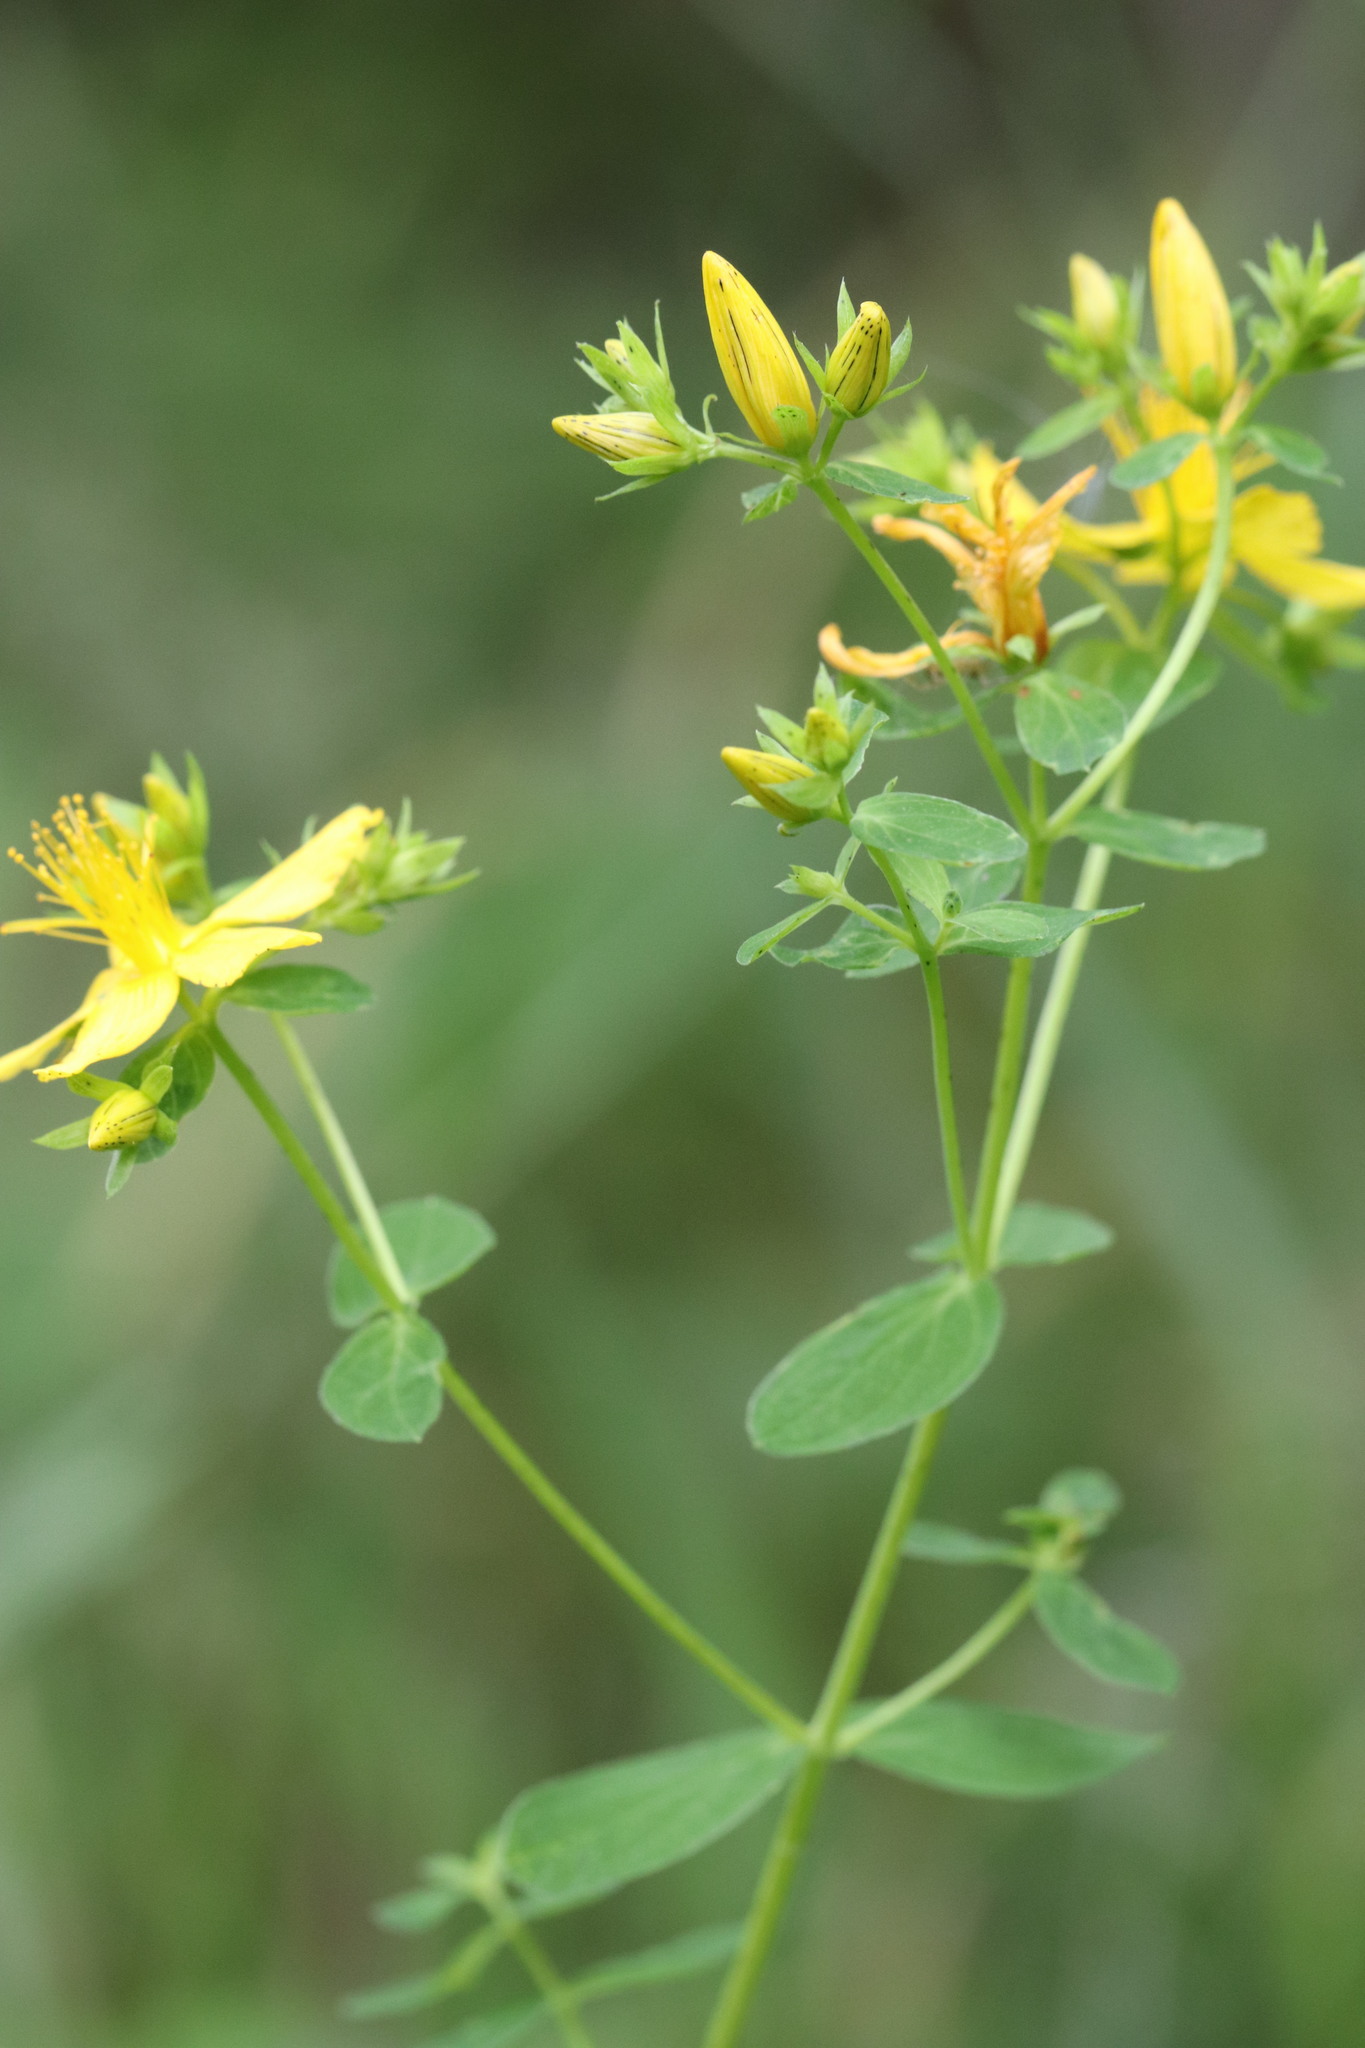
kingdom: Plantae
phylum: Tracheophyta
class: Magnoliopsida
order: Malpighiales
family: Hypericaceae
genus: Hypericum
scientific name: Hypericum perforatum
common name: Common st. johnswort
